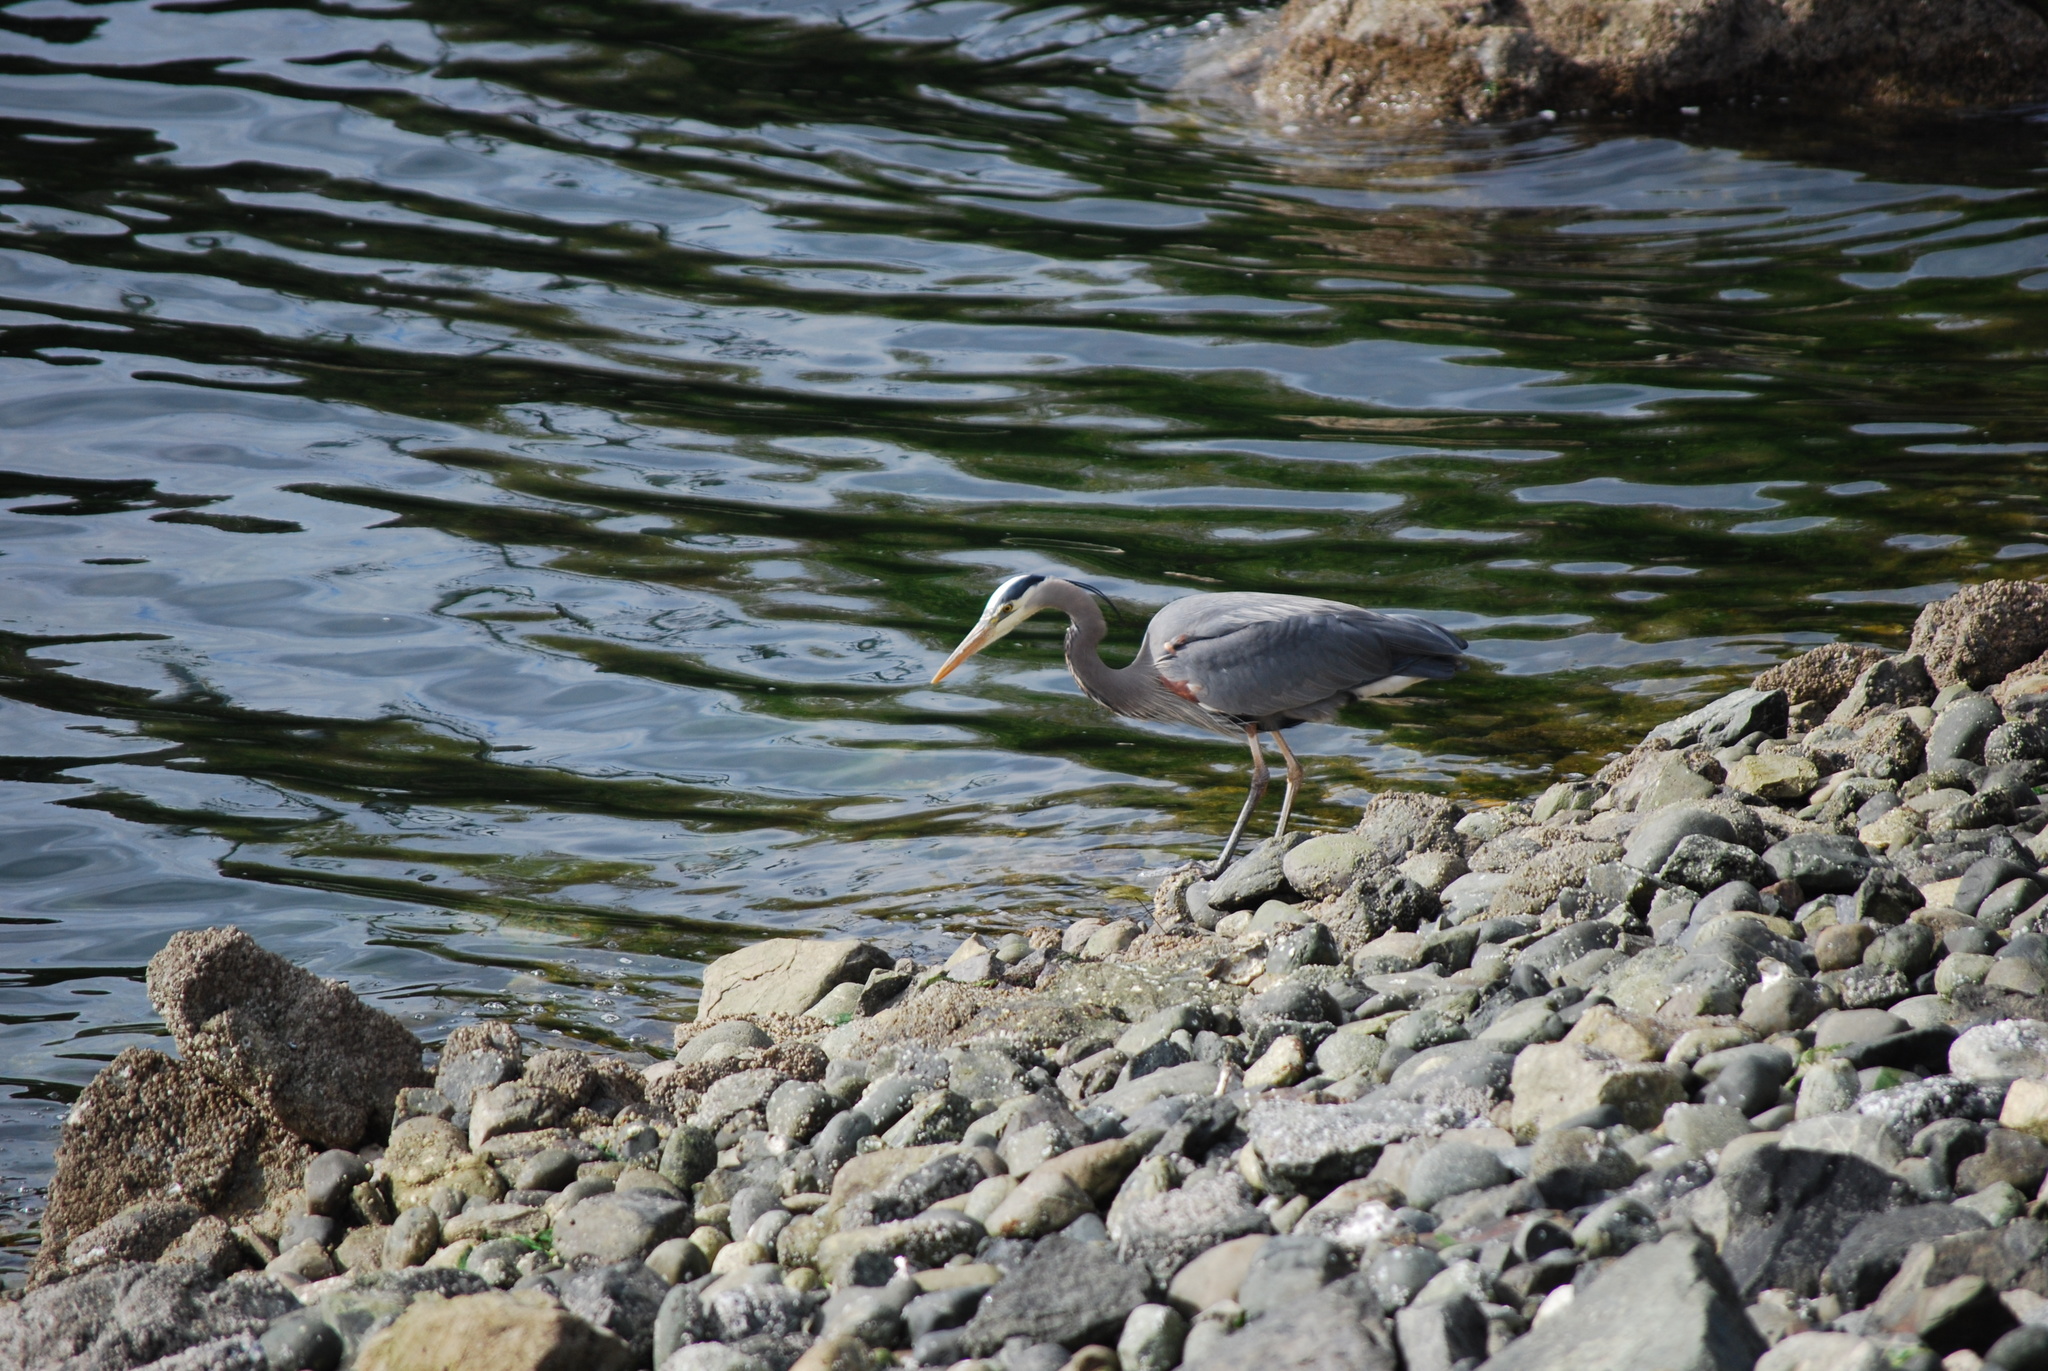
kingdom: Animalia
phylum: Chordata
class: Aves
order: Pelecaniformes
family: Ardeidae
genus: Ardea
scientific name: Ardea herodias
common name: Great blue heron
